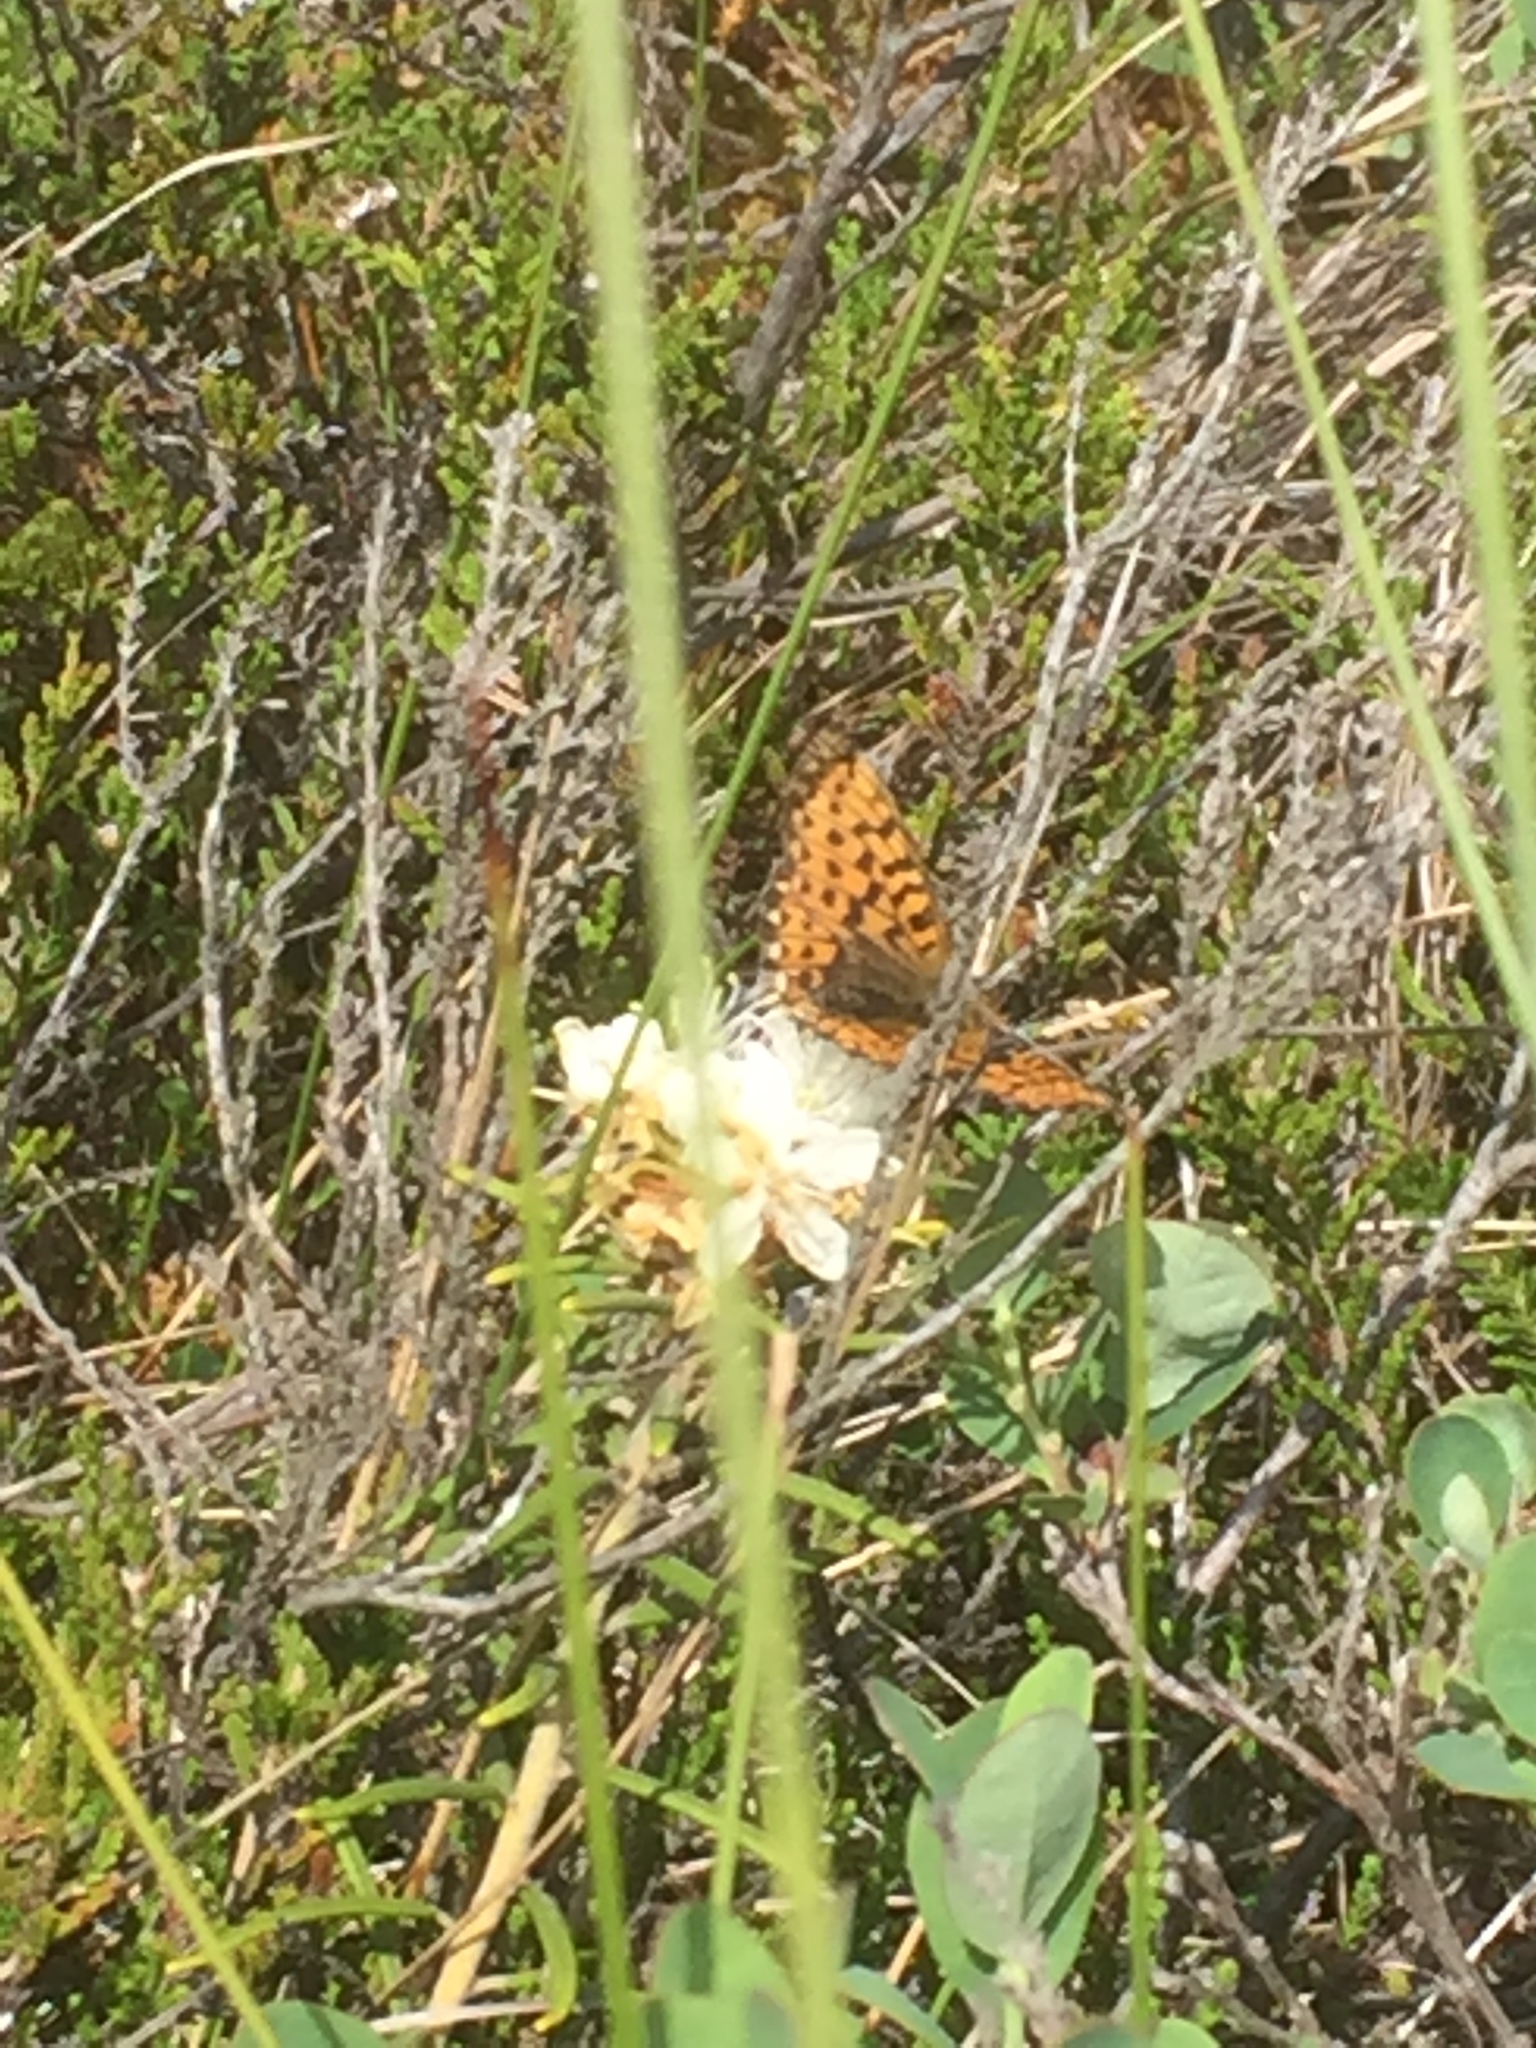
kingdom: Animalia
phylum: Arthropoda
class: Insecta
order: Lepidoptera
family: Nymphalidae
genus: Clossiana
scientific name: Clossiana euphrosyne
